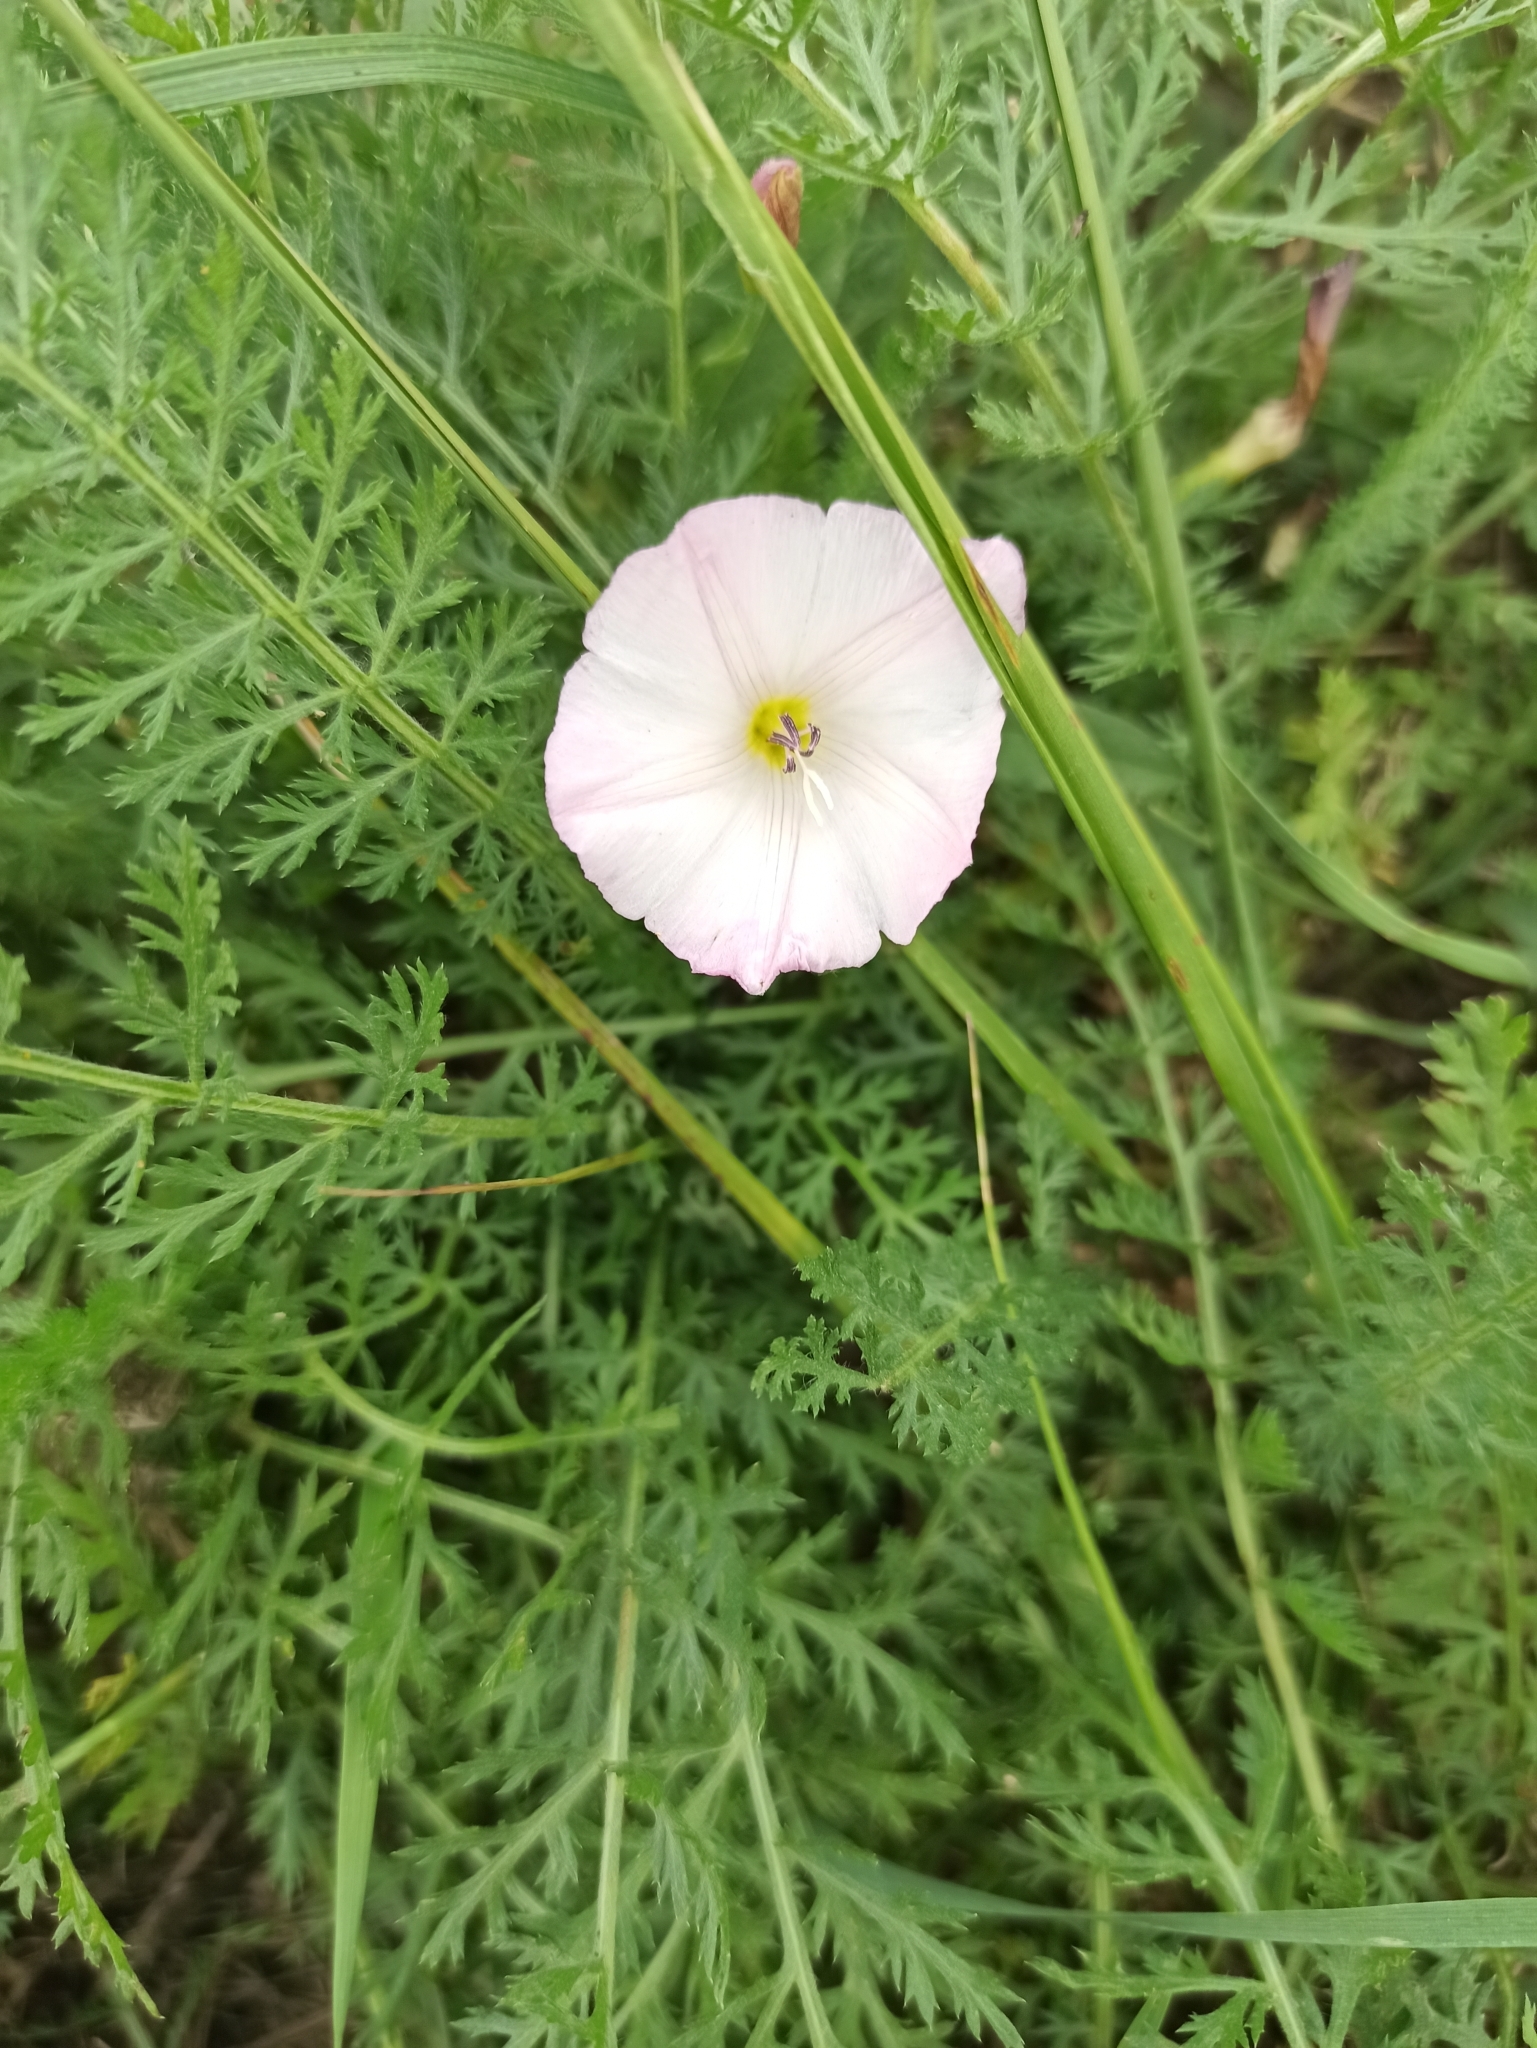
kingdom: Plantae
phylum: Tracheophyta
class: Magnoliopsida
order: Solanales
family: Convolvulaceae
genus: Convolvulus
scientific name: Convolvulus arvensis
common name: Field bindweed
